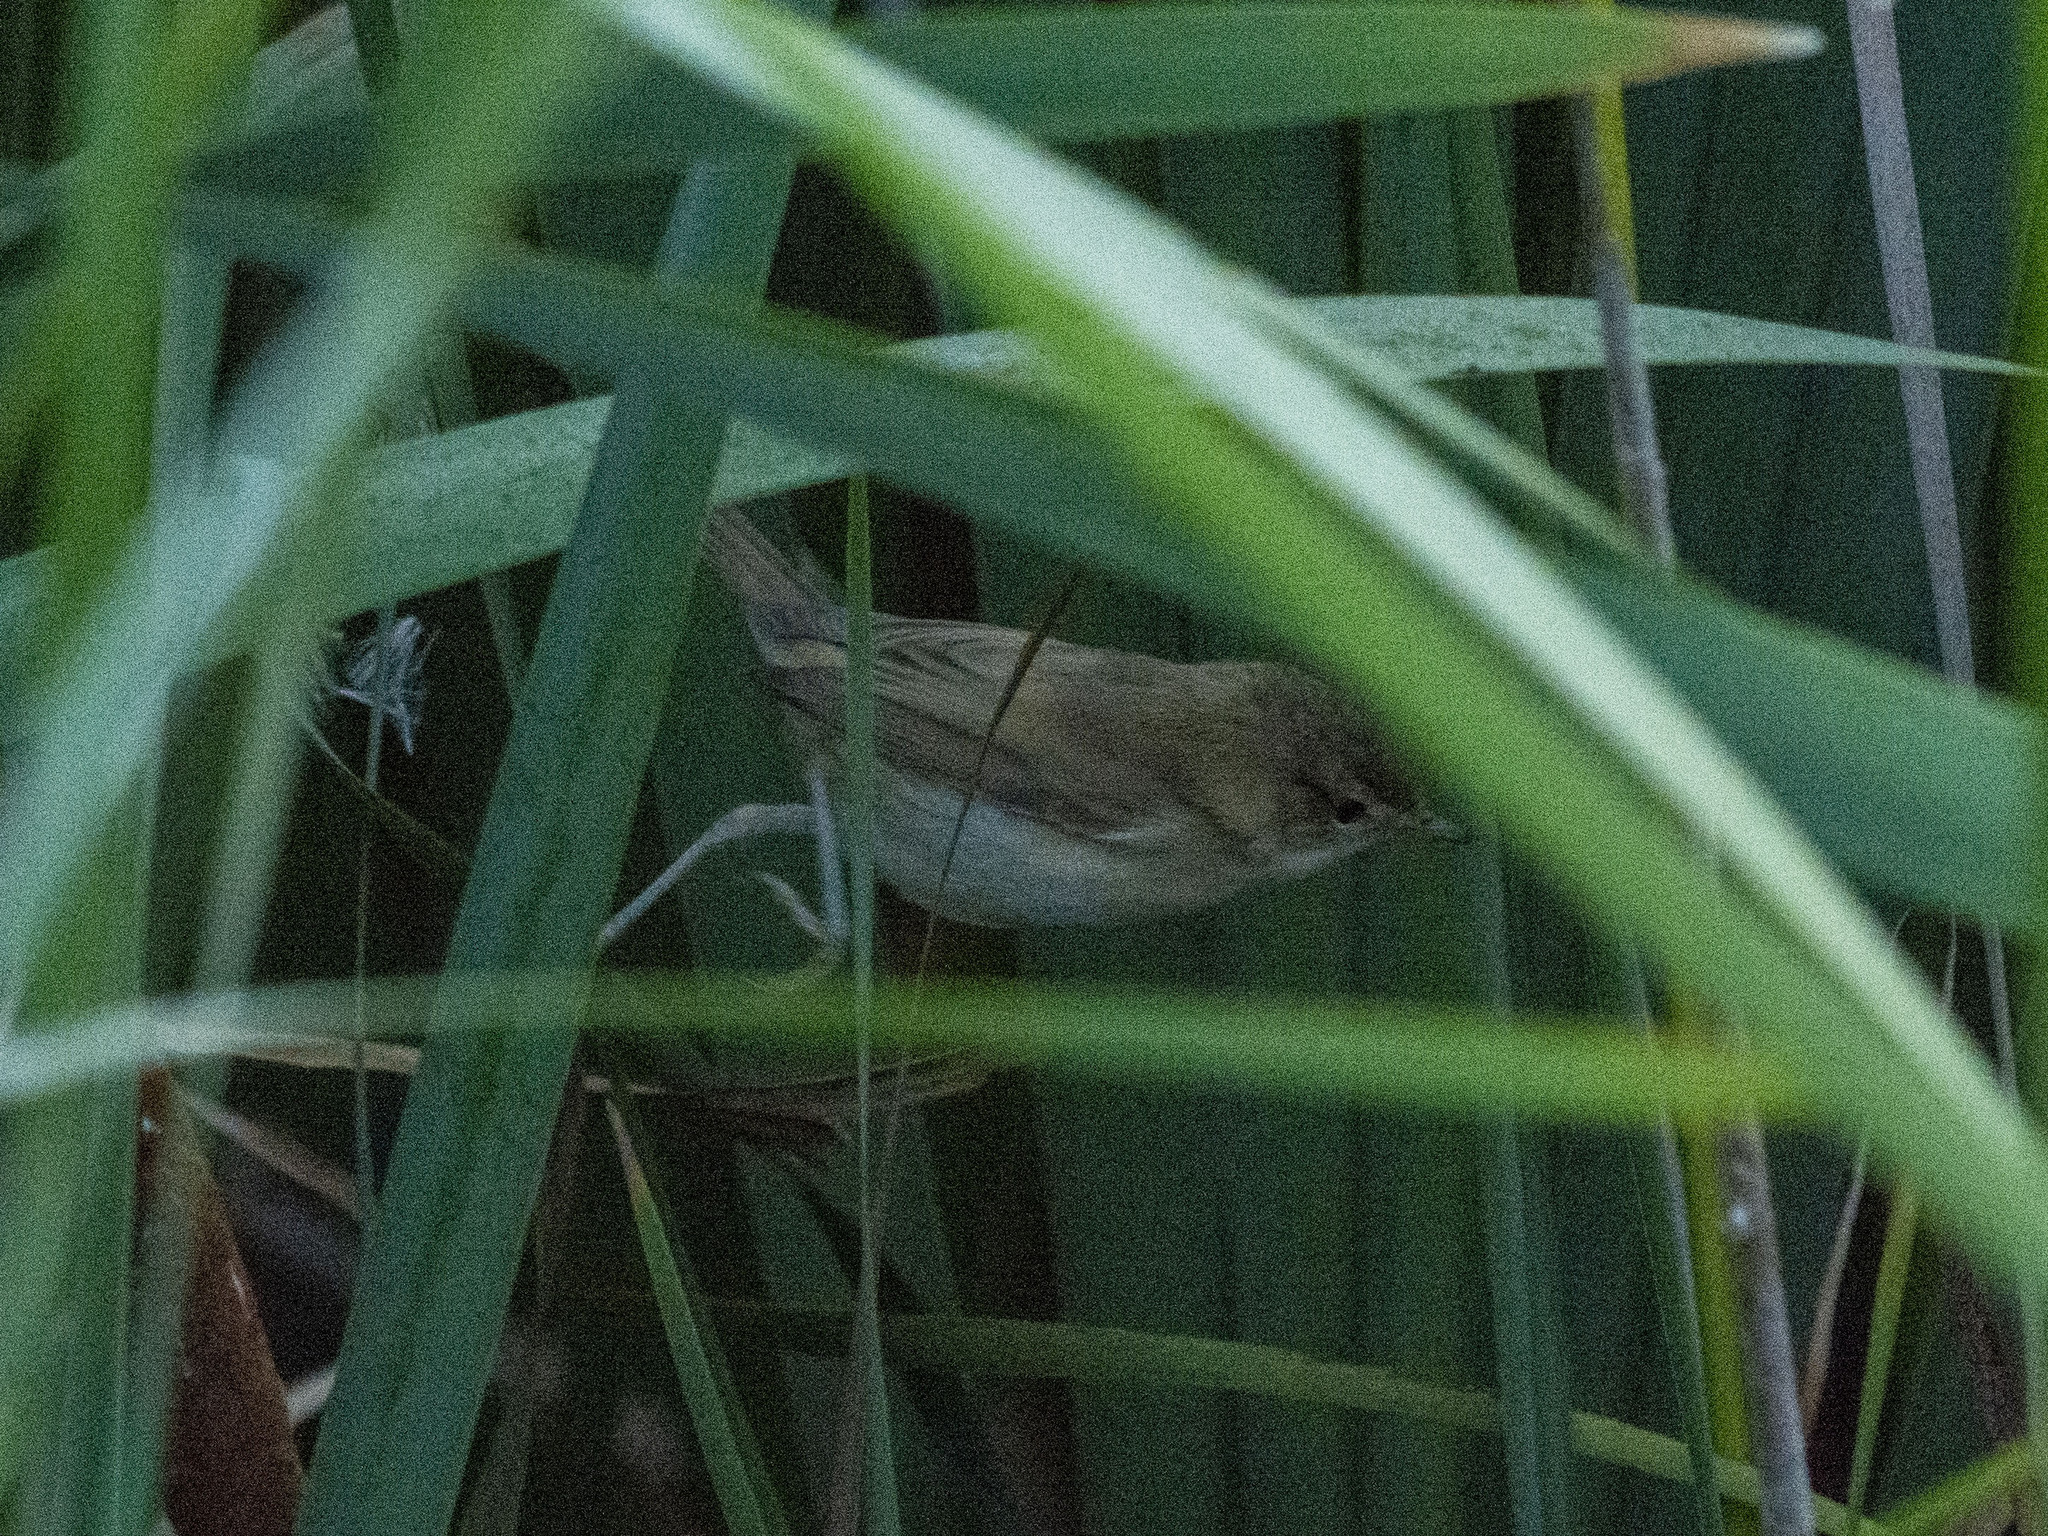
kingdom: Animalia
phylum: Chordata
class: Aves
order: Passeriformes
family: Acrocephalidae
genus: Acrocephalus
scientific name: Acrocephalus agricola
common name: Paddyfield warbler
